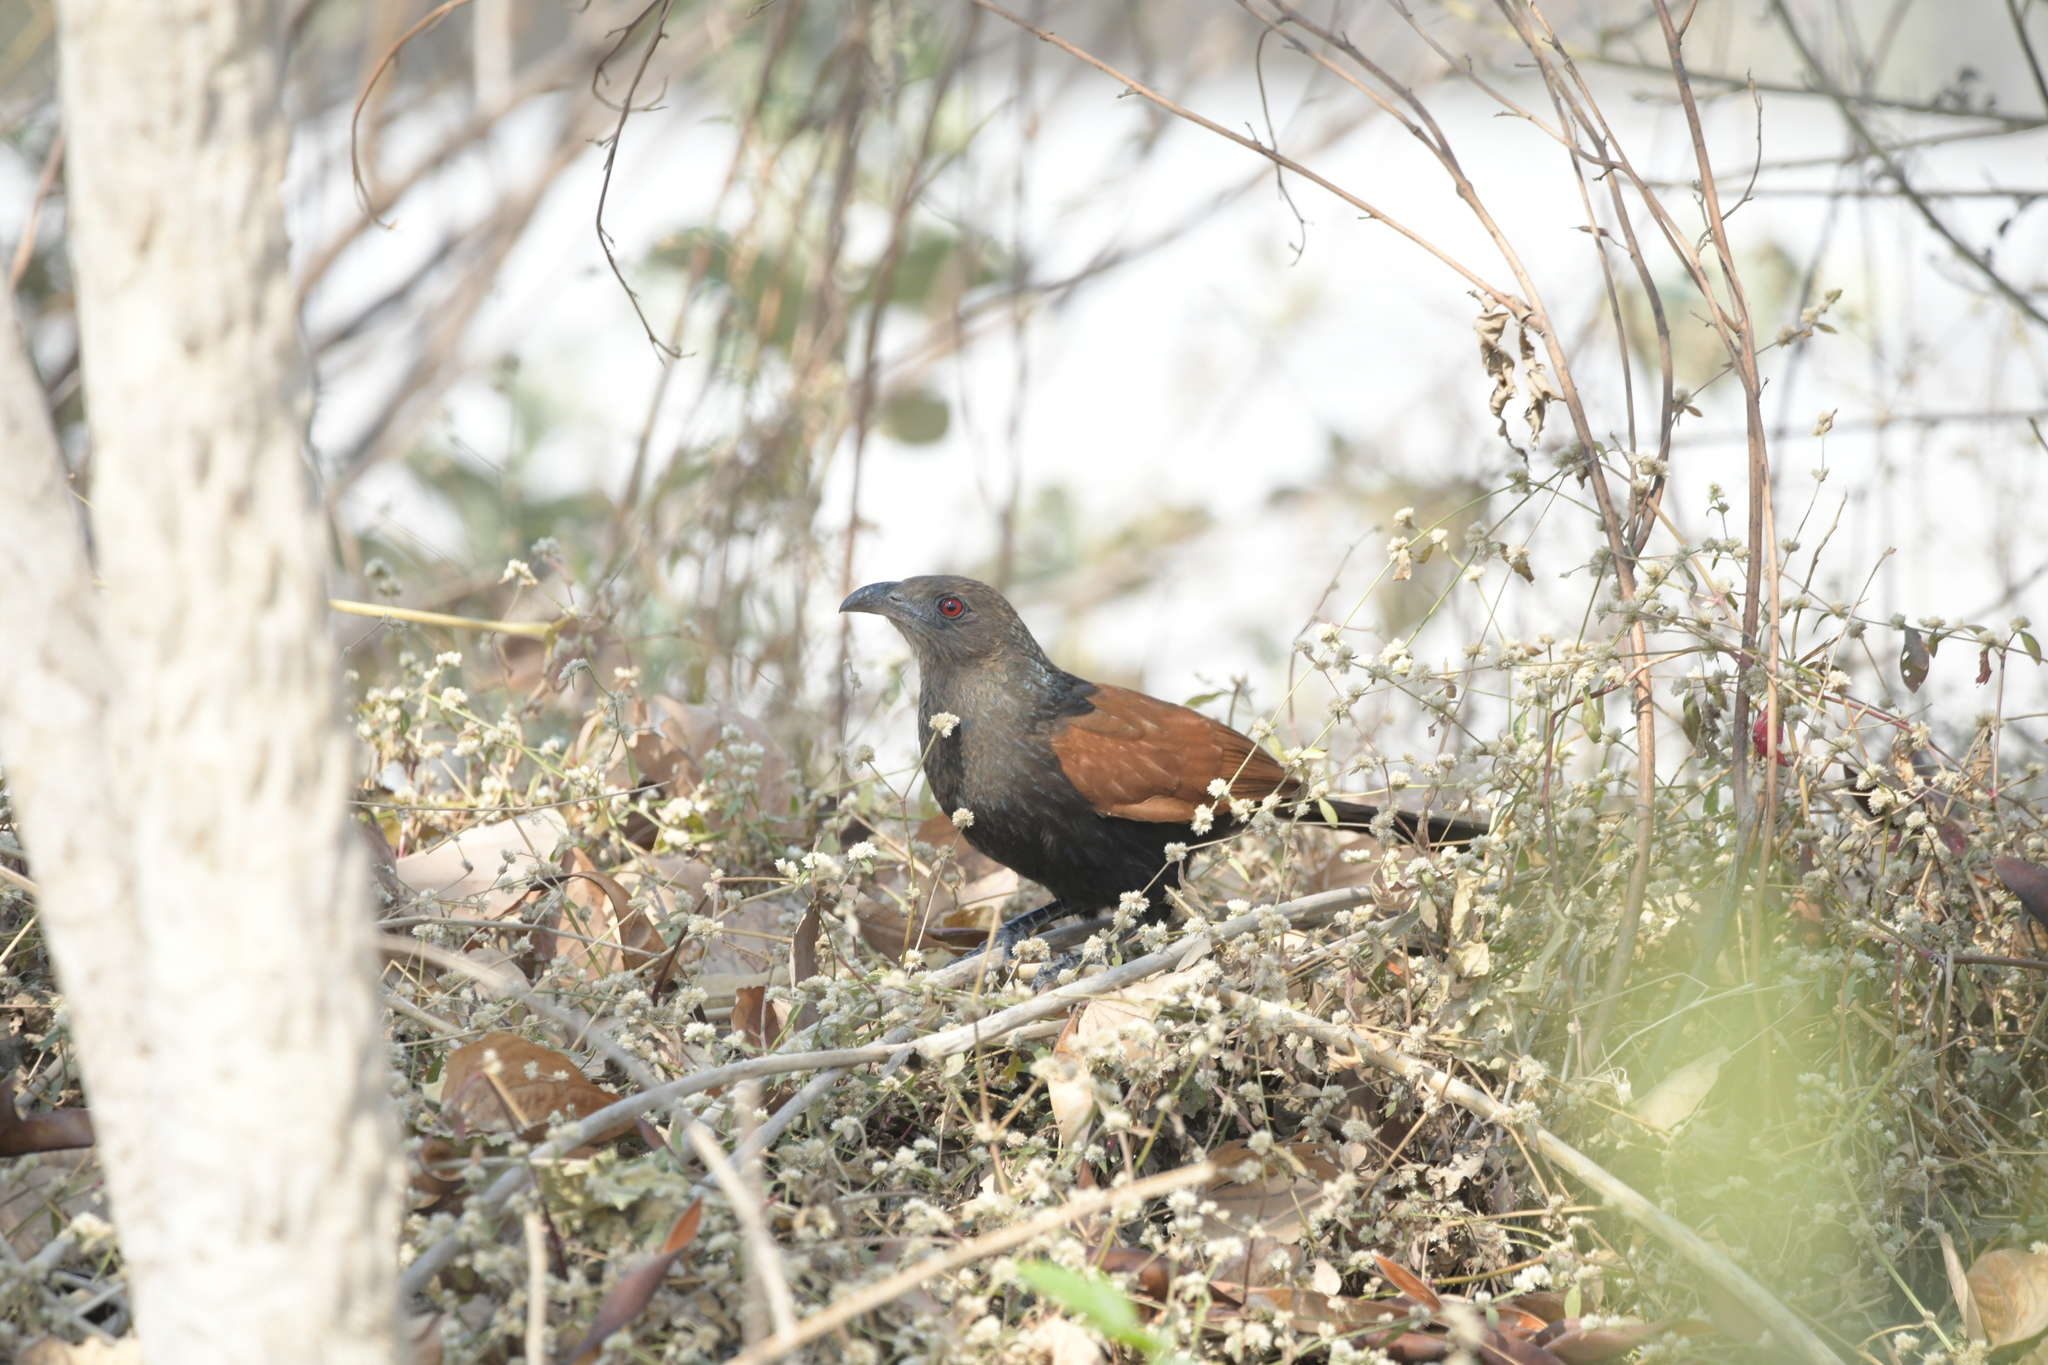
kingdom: Animalia
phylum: Chordata
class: Aves
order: Cuculiformes
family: Cuculidae
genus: Centropus
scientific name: Centropus sinensis
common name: Greater coucal
